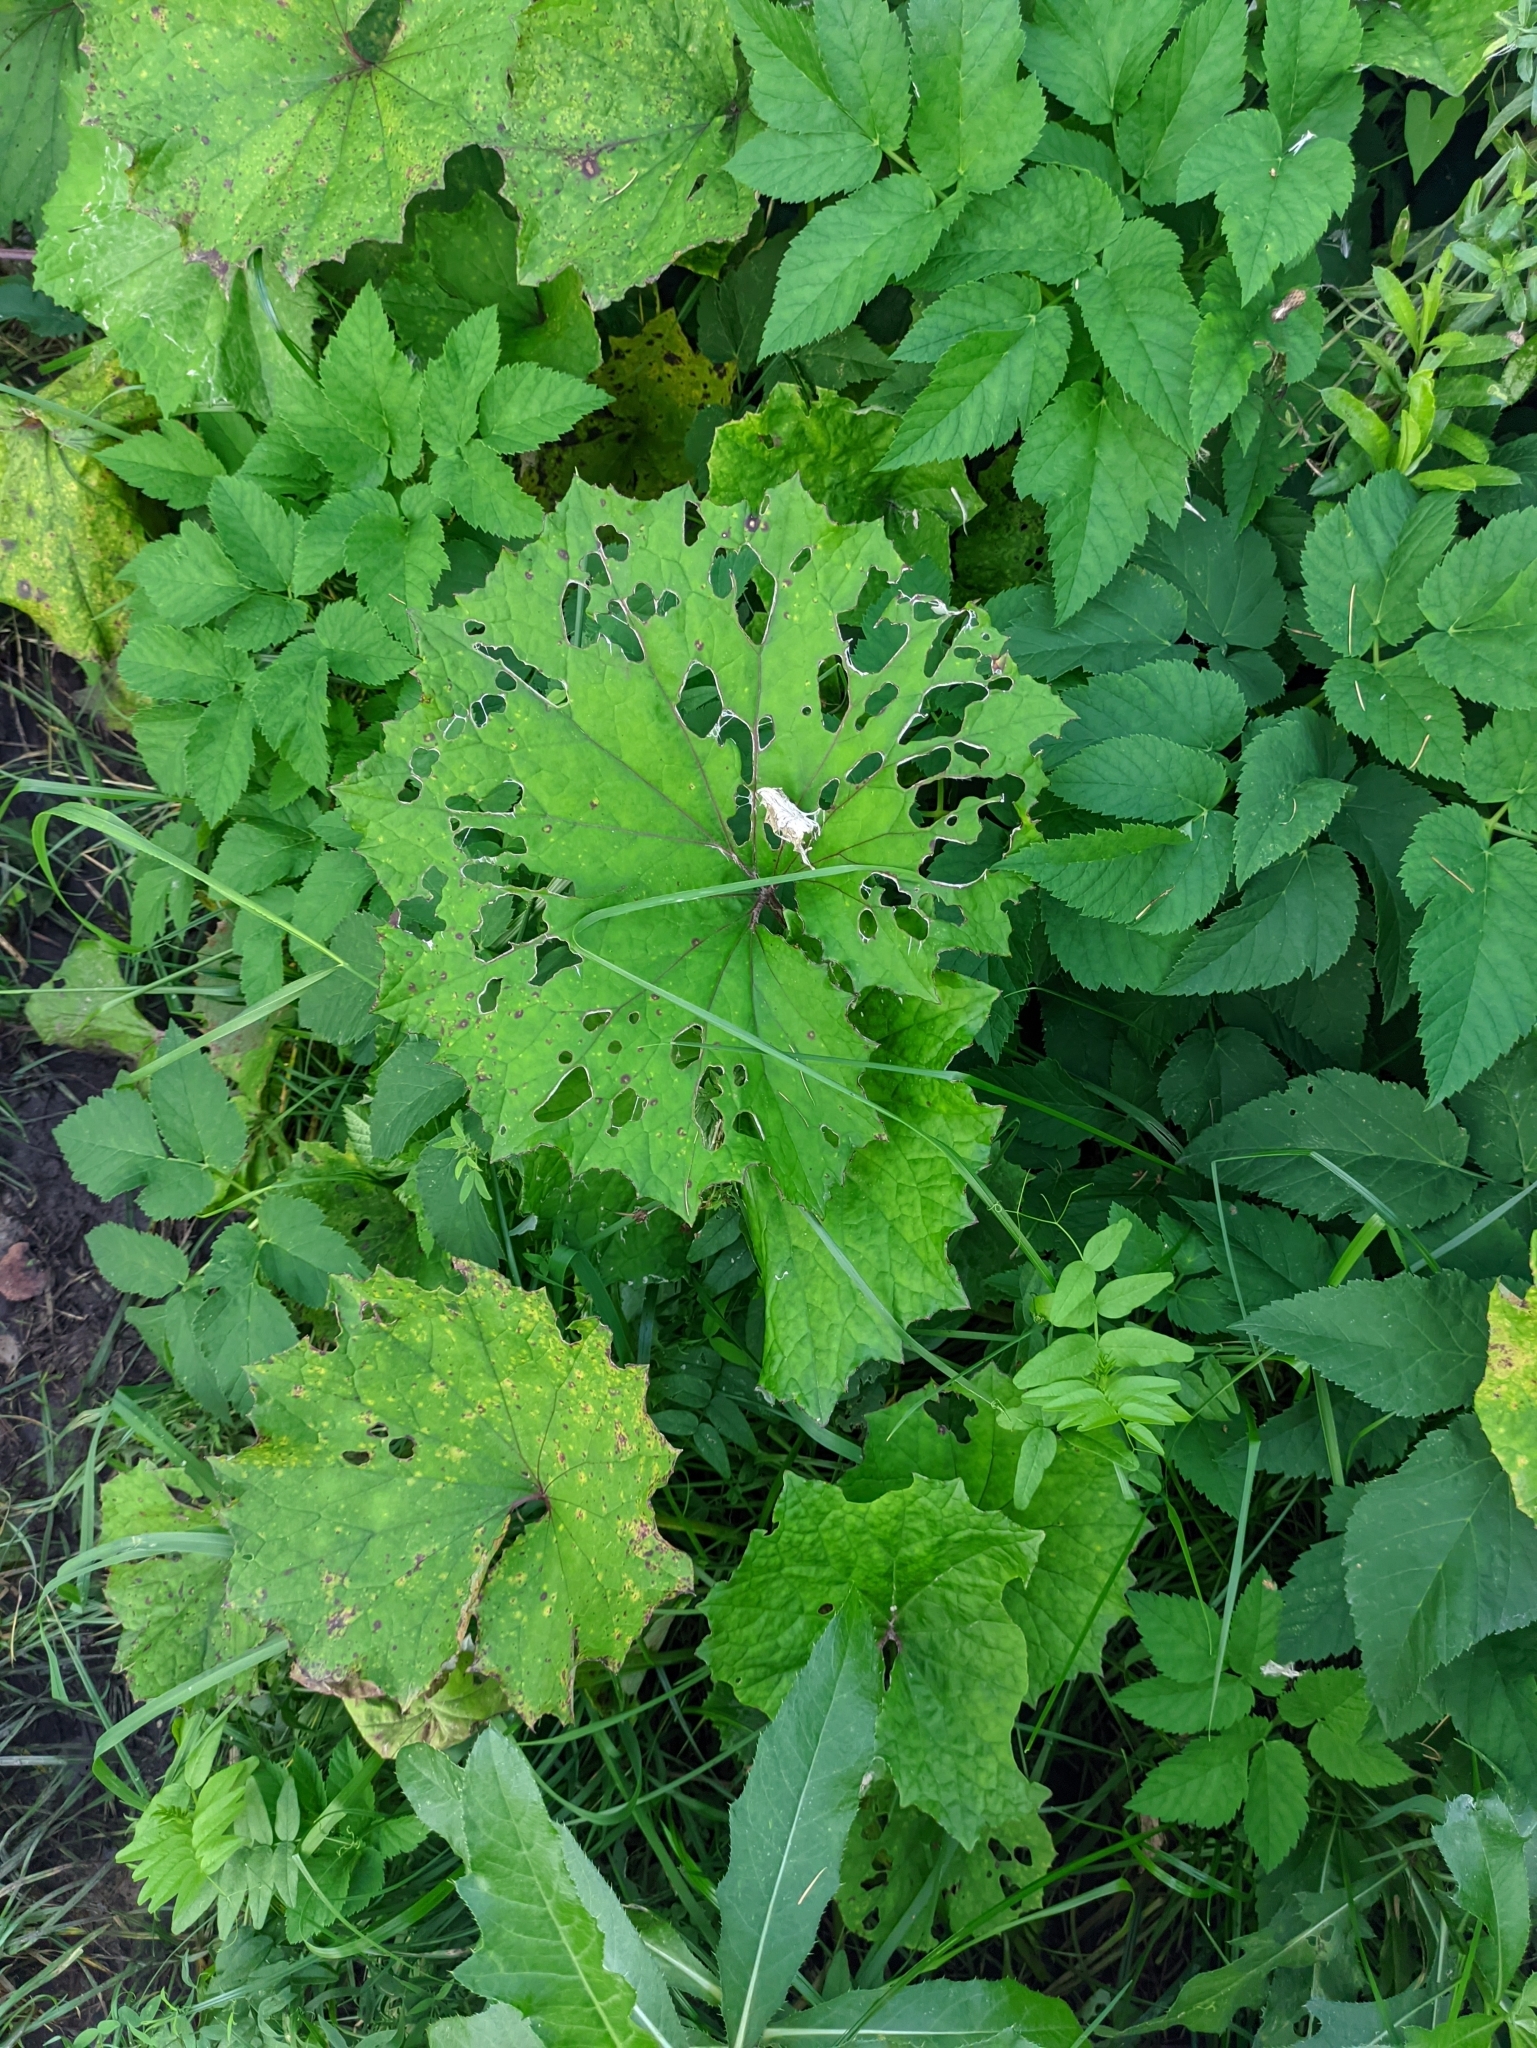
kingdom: Plantae
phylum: Tracheophyta
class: Magnoliopsida
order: Asterales
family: Asteraceae
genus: Tussilago
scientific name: Tussilago farfara
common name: Coltsfoot
